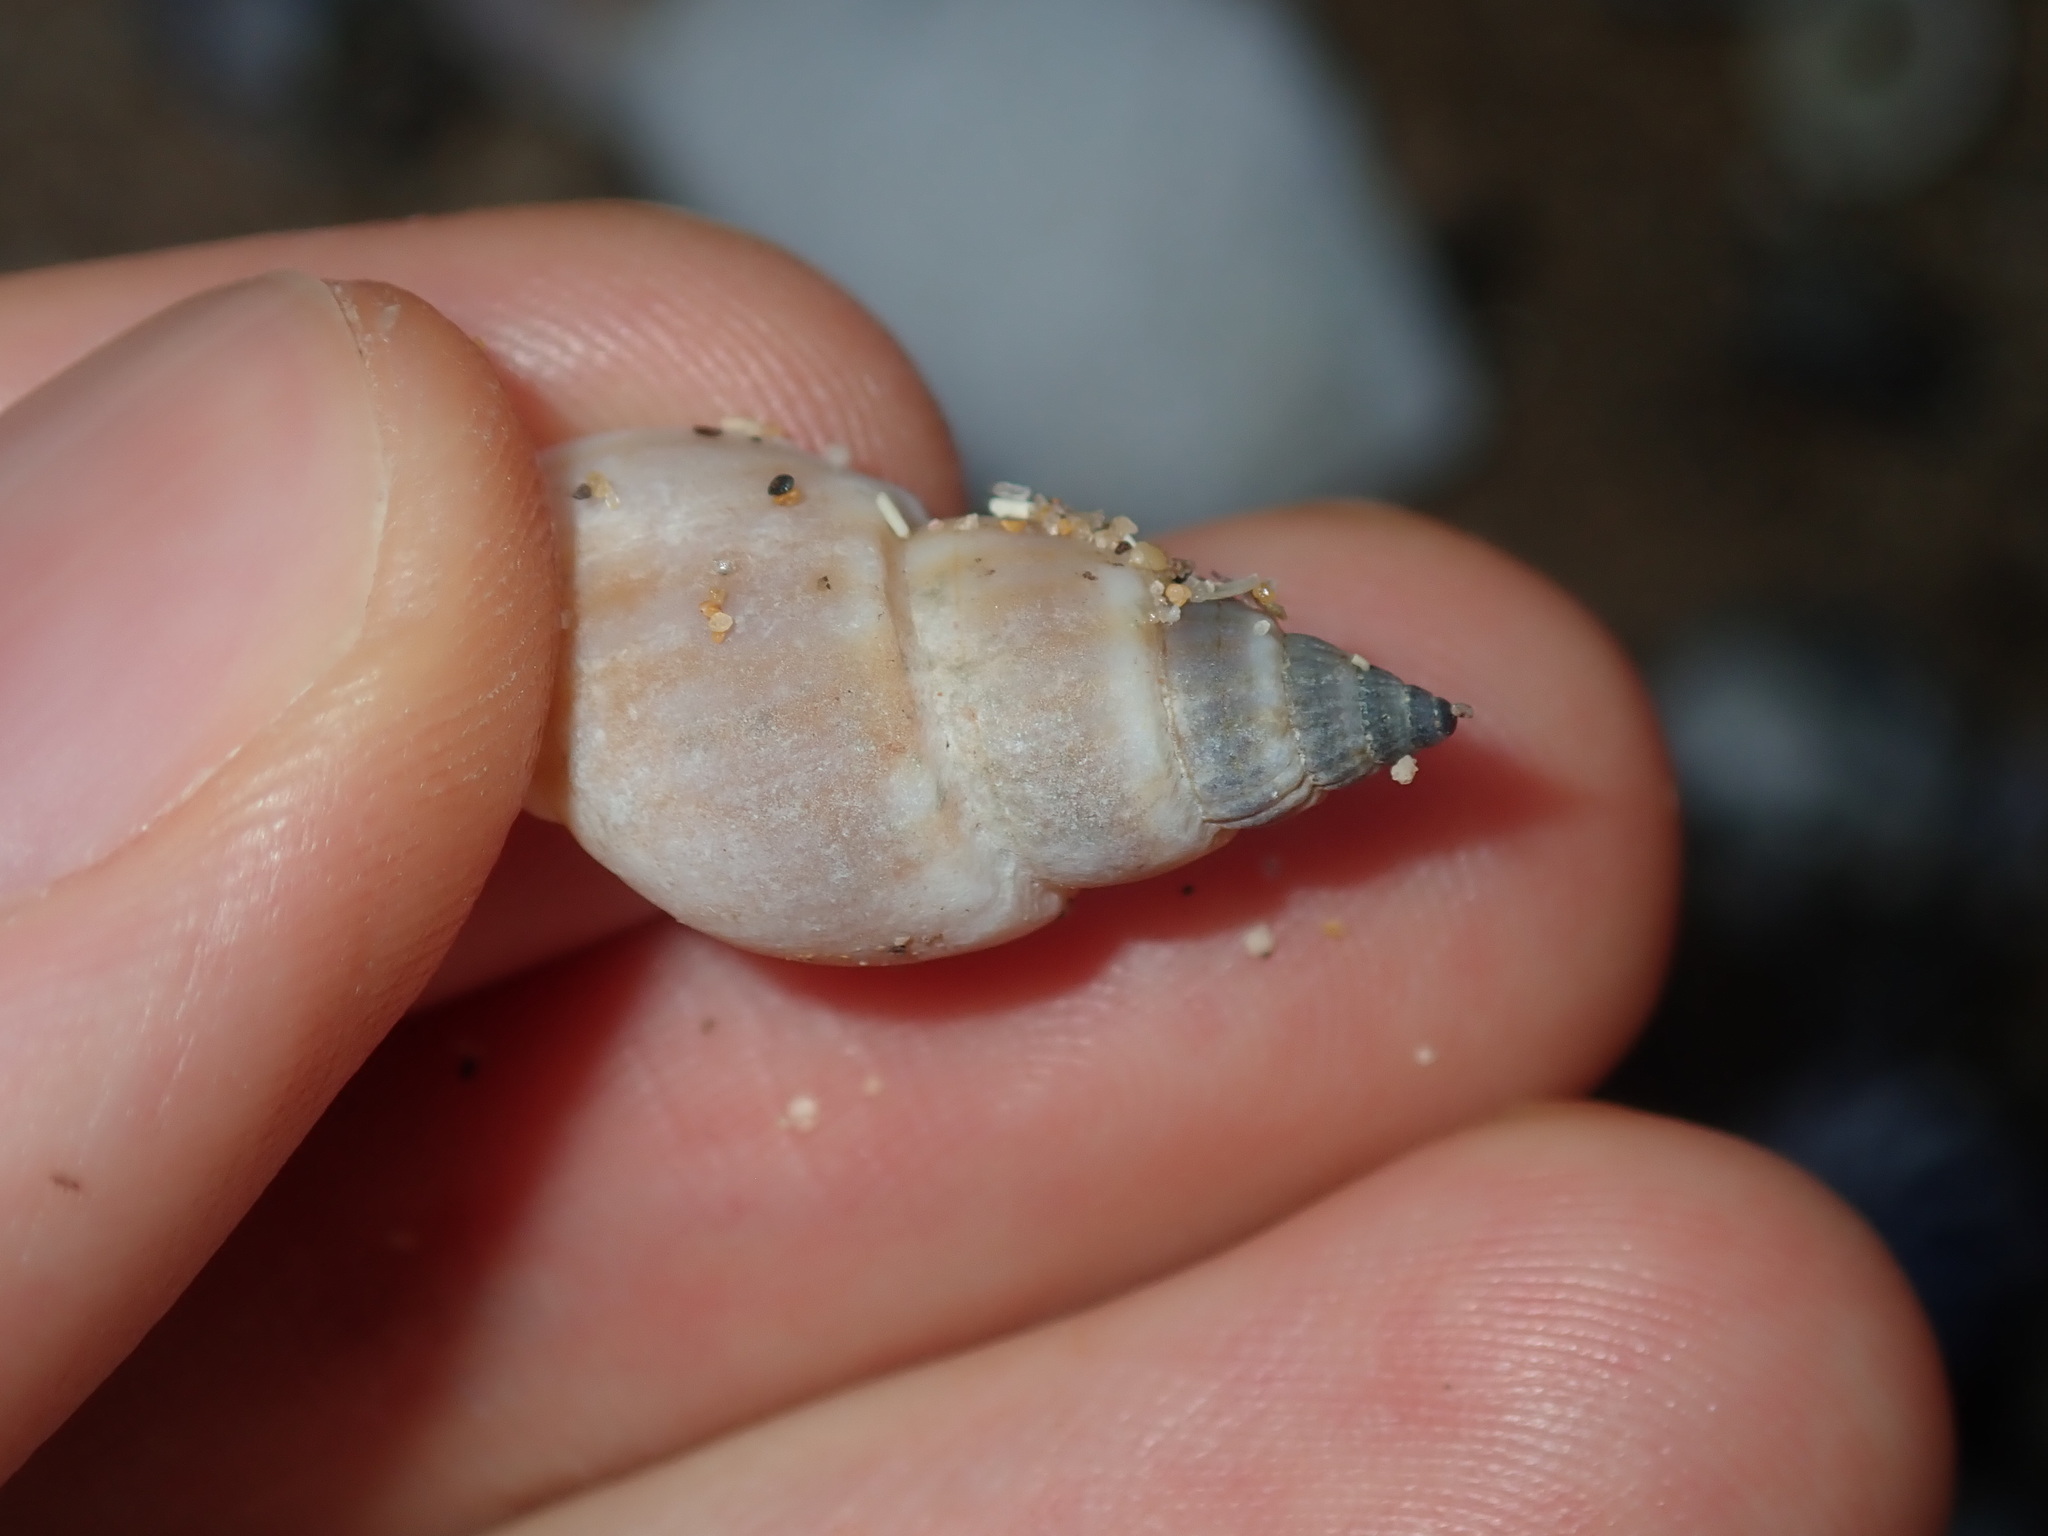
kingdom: Animalia
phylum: Mollusca
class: Gastropoda
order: Neogastropoda
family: Nassariidae
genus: Nassarius
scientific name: Nassarius particeps
